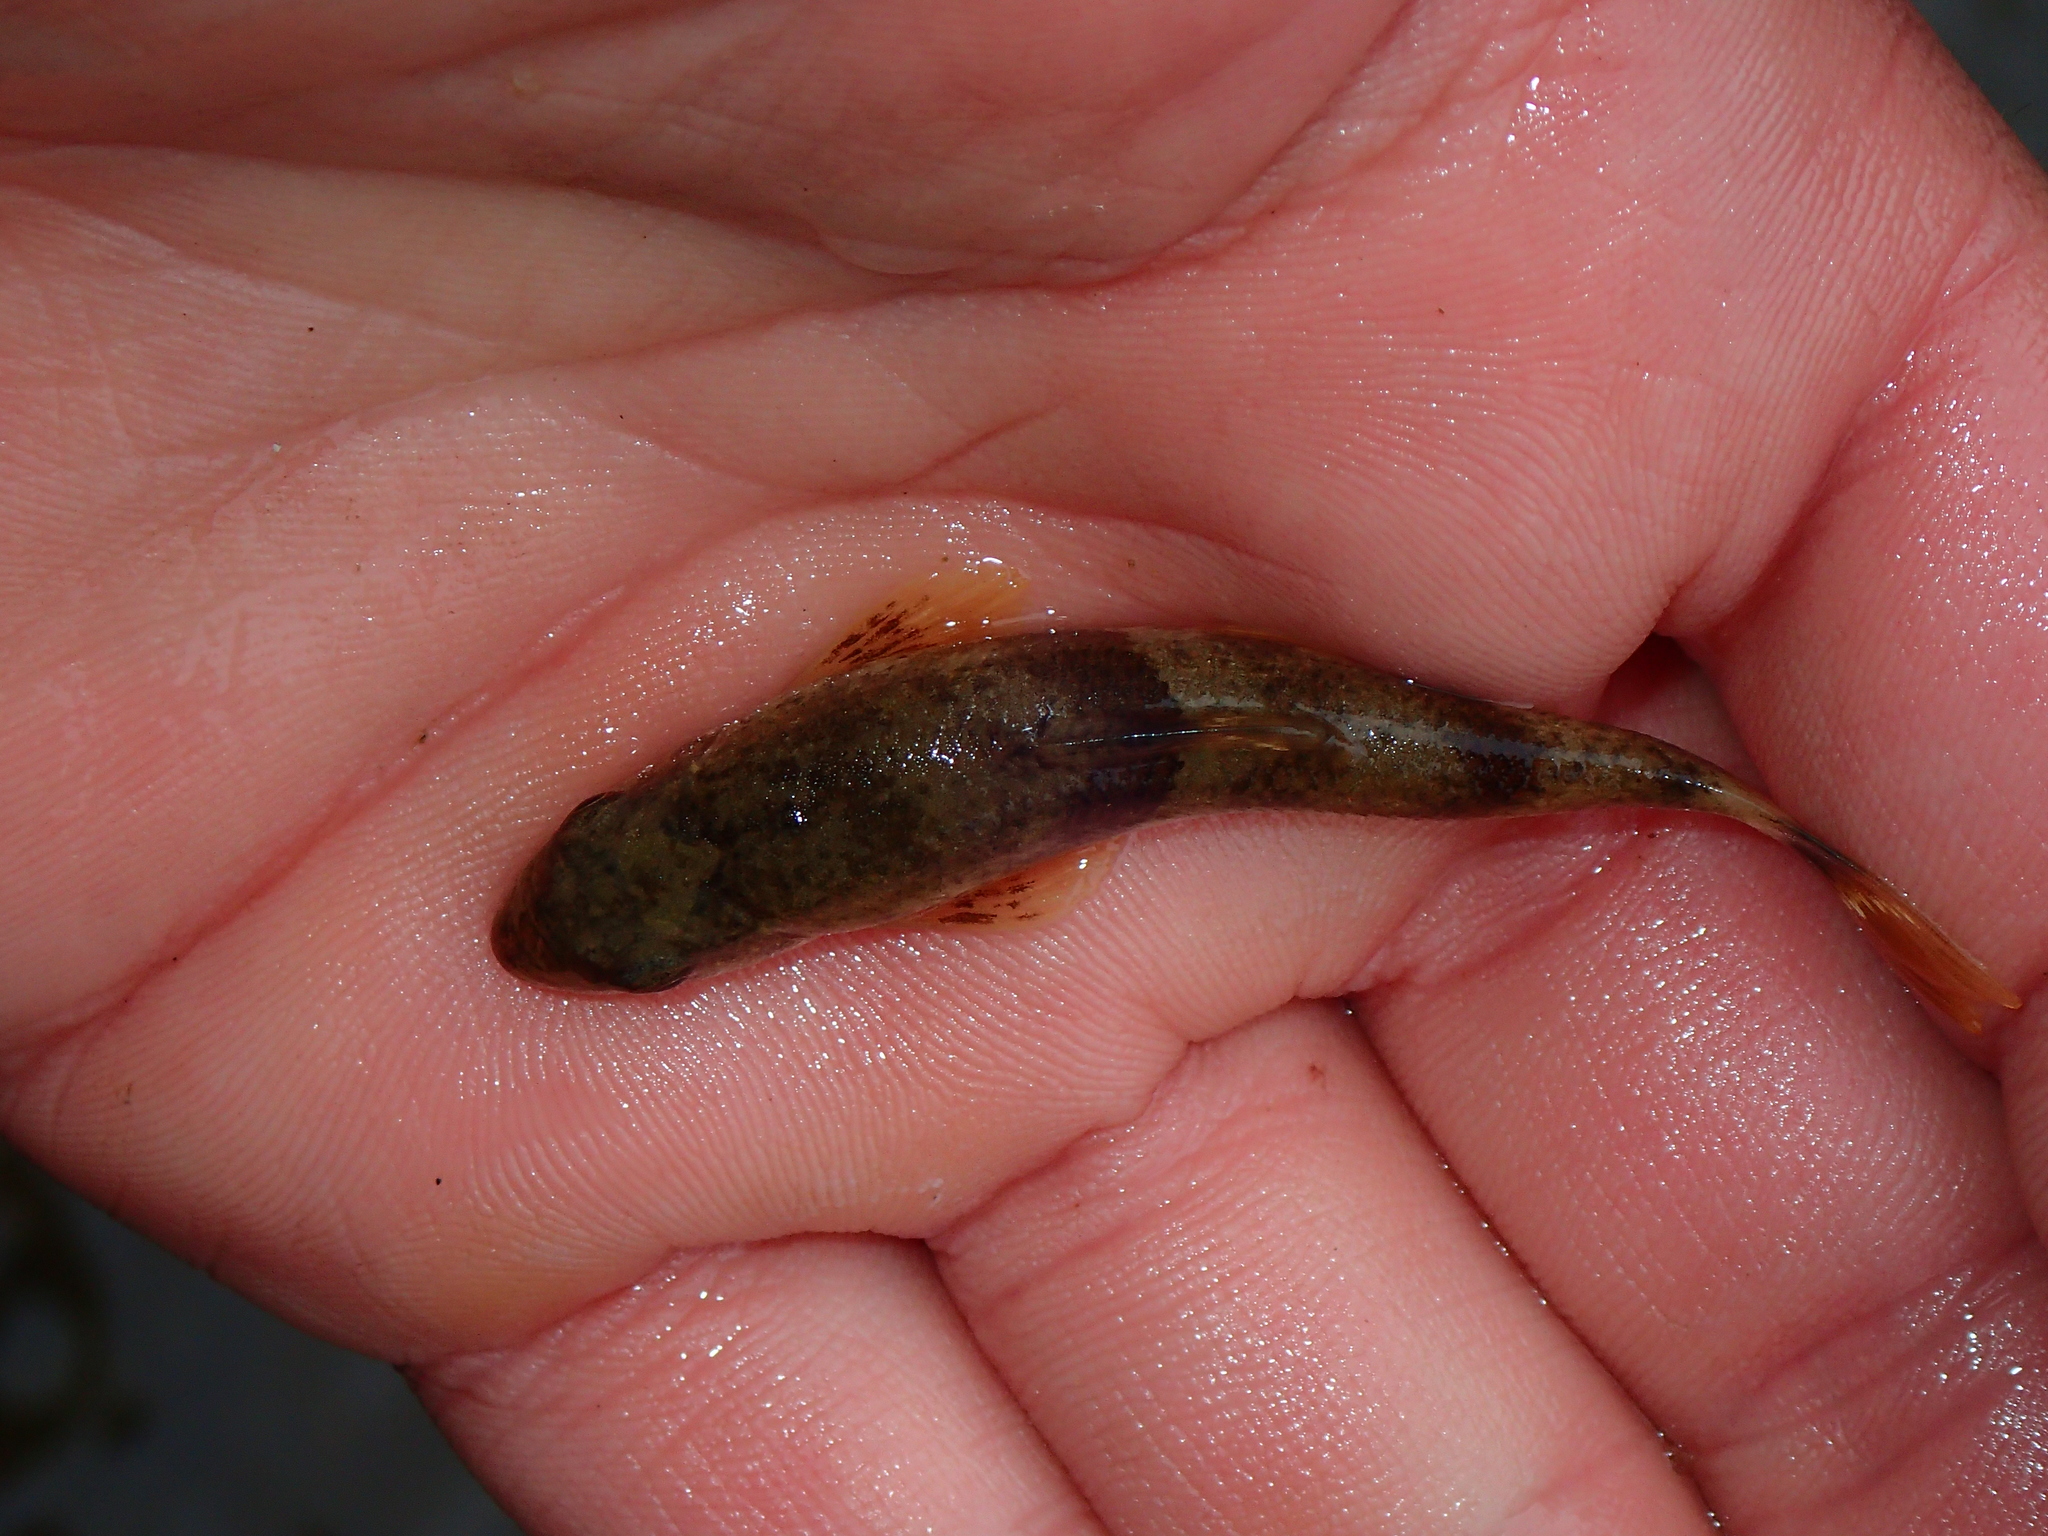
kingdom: Animalia
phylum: Chordata
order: Cypriniformes
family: Catostomidae
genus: Hypentelium
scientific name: Hypentelium nigricans
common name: Northern hog sucker
